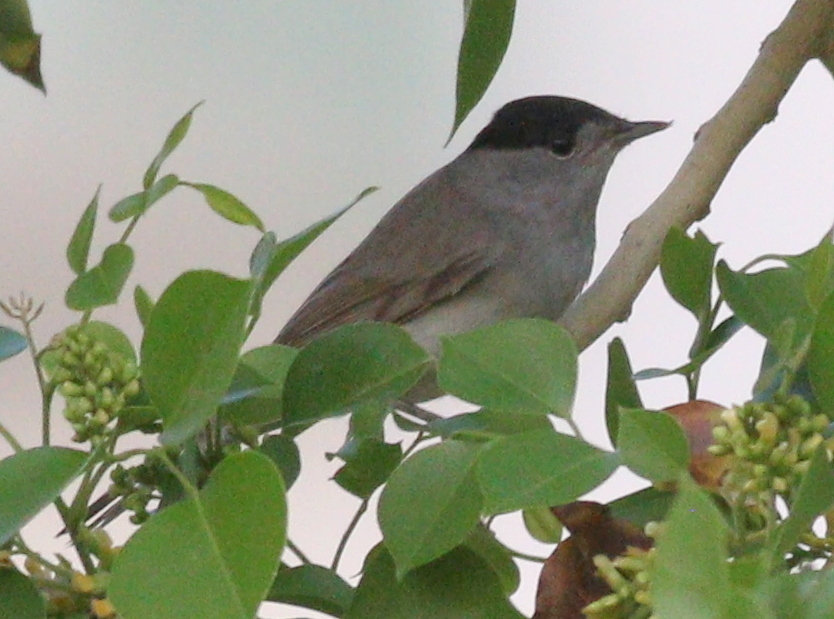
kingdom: Animalia
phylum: Chordata
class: Aves
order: Passeriformes
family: Sylviidae
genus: Sylvia
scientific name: Sylvia atricapilla
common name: Eurasian blackcap
